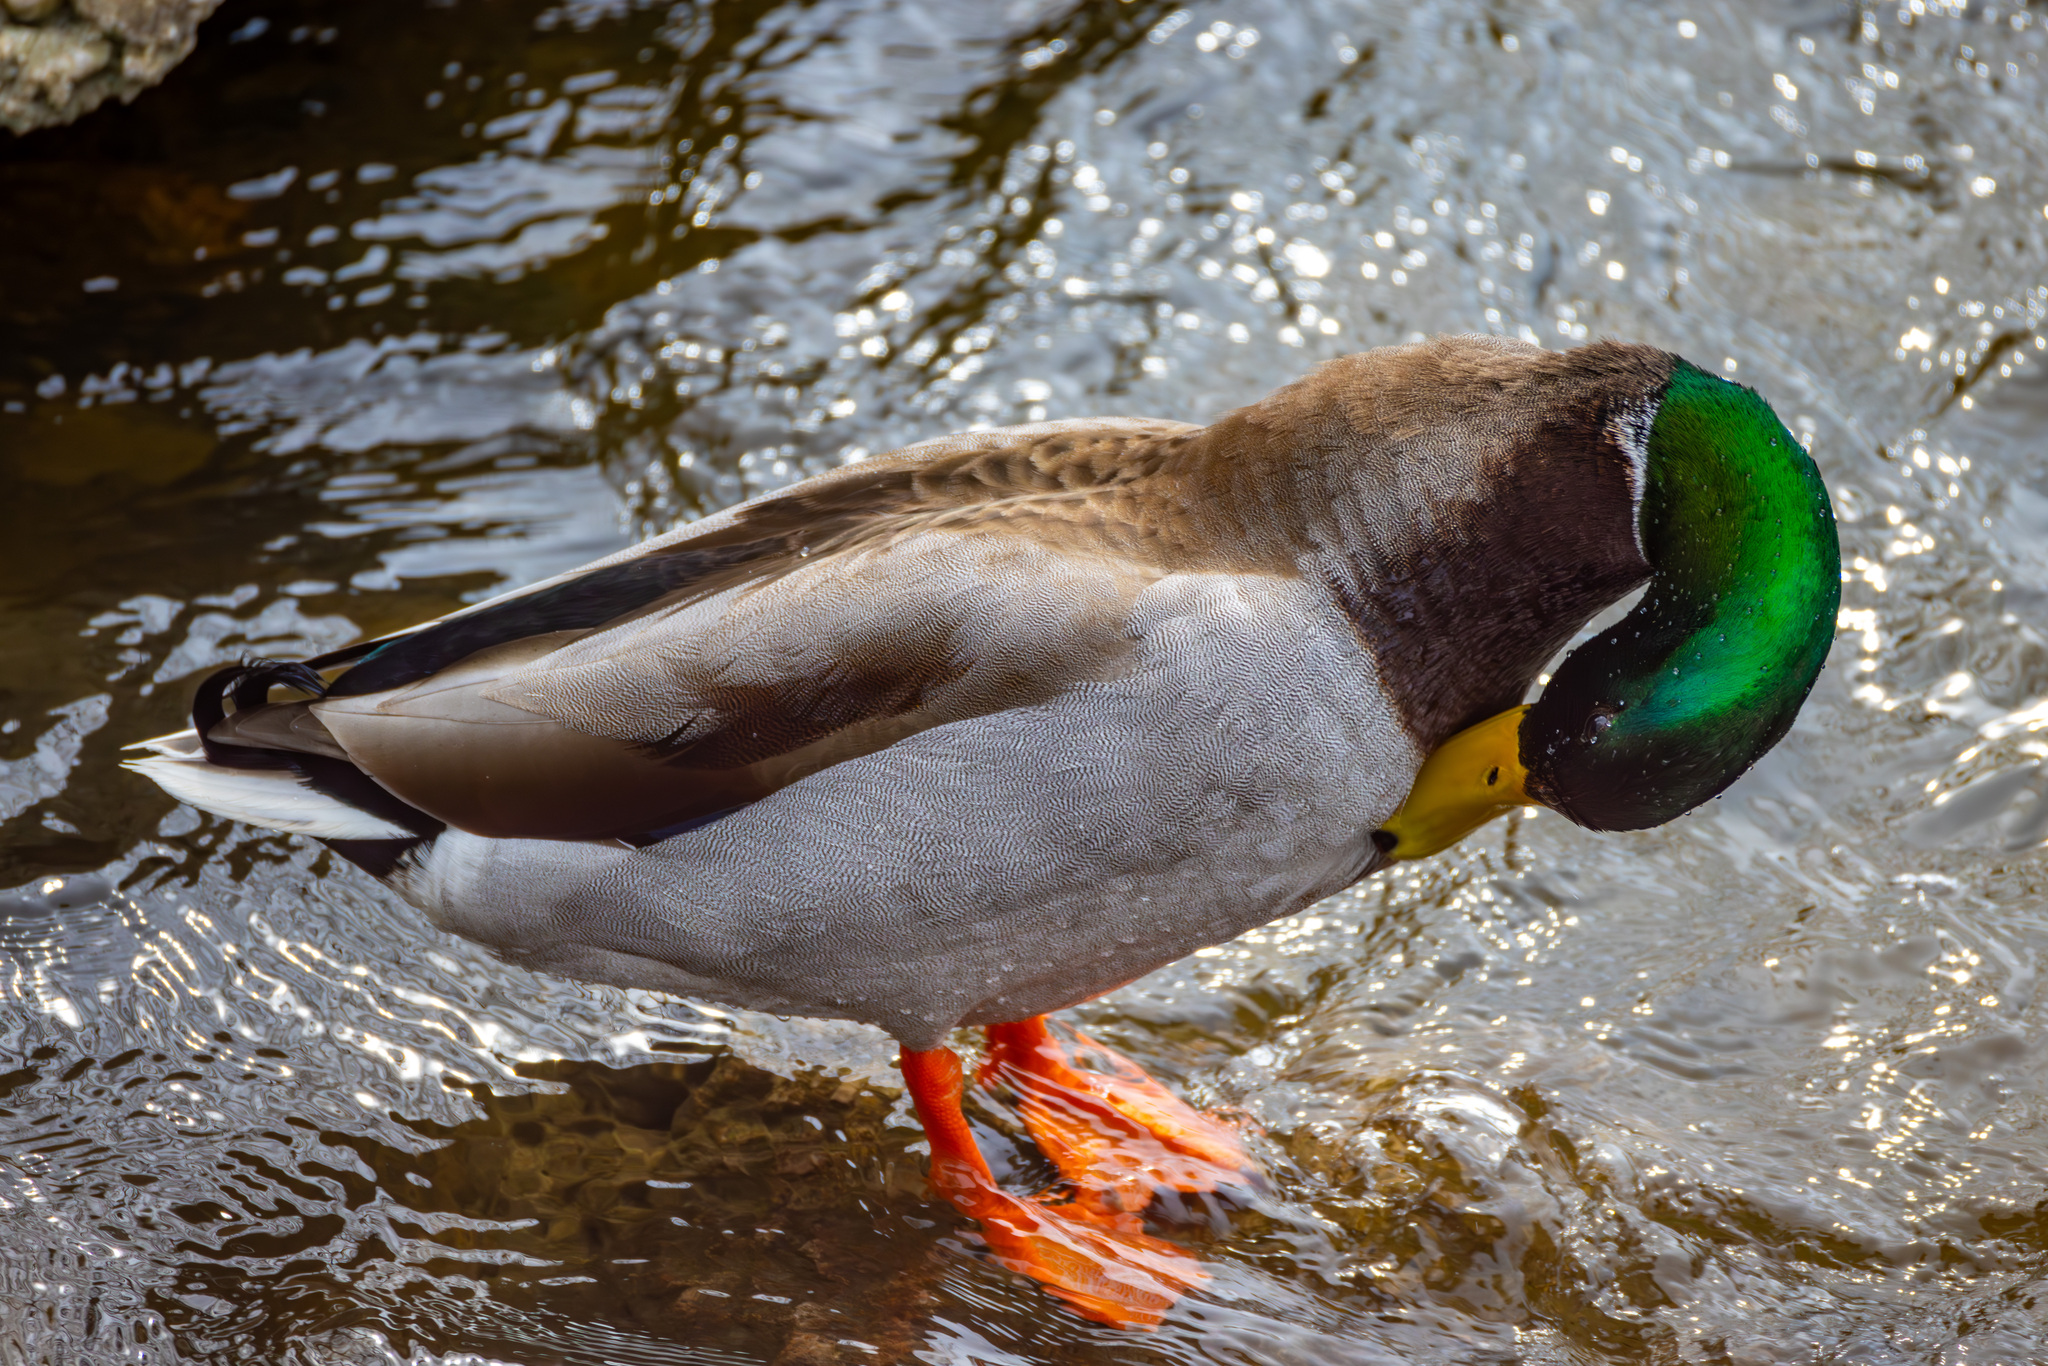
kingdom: Animalia
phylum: Chordata
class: Aves
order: Anseriformes
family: Anatidae
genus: Anas
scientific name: Anas platyrhynchos
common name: Mallard
